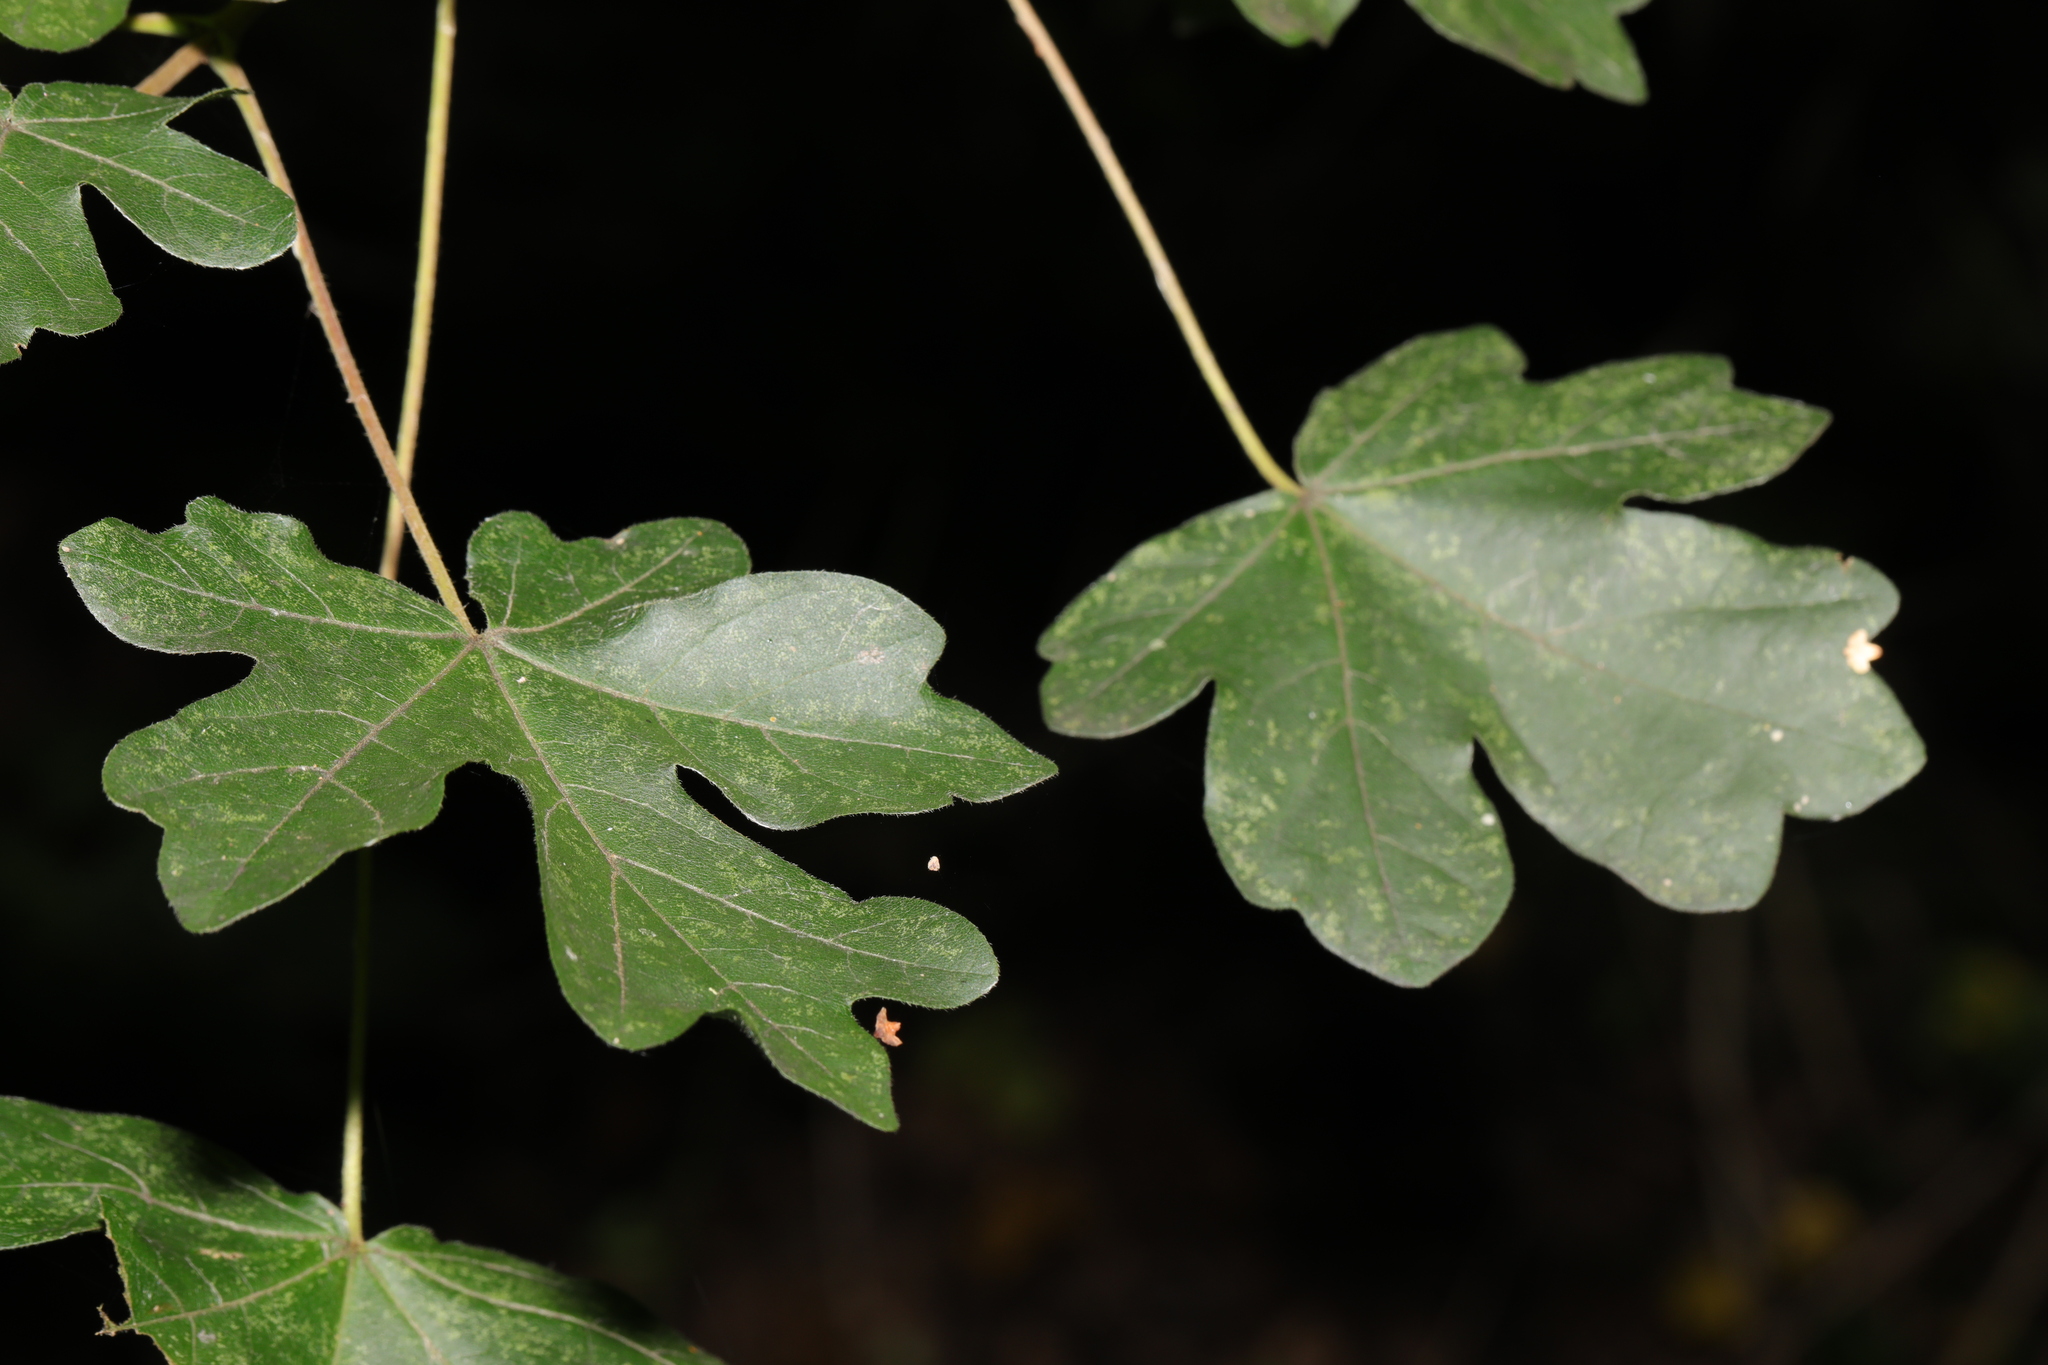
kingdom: Plantae
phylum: Tracheophyta
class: Magnoliopsida
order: Sapindales
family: Sapindaceae
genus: Acer
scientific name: Acer campestre
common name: Field maple
